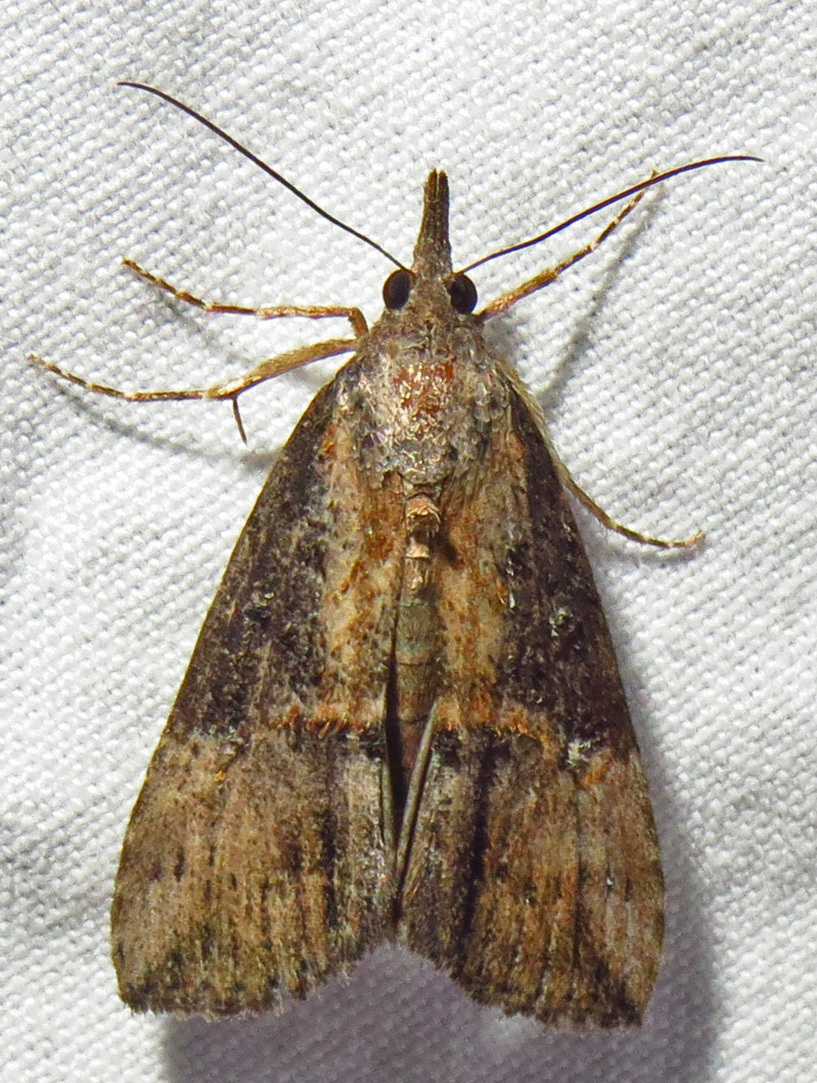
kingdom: Animalia
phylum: Arthropoda
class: Insecta
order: Lepidoptera
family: Erebidae
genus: Hypena
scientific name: Hypena scabra
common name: Green cloverworm
